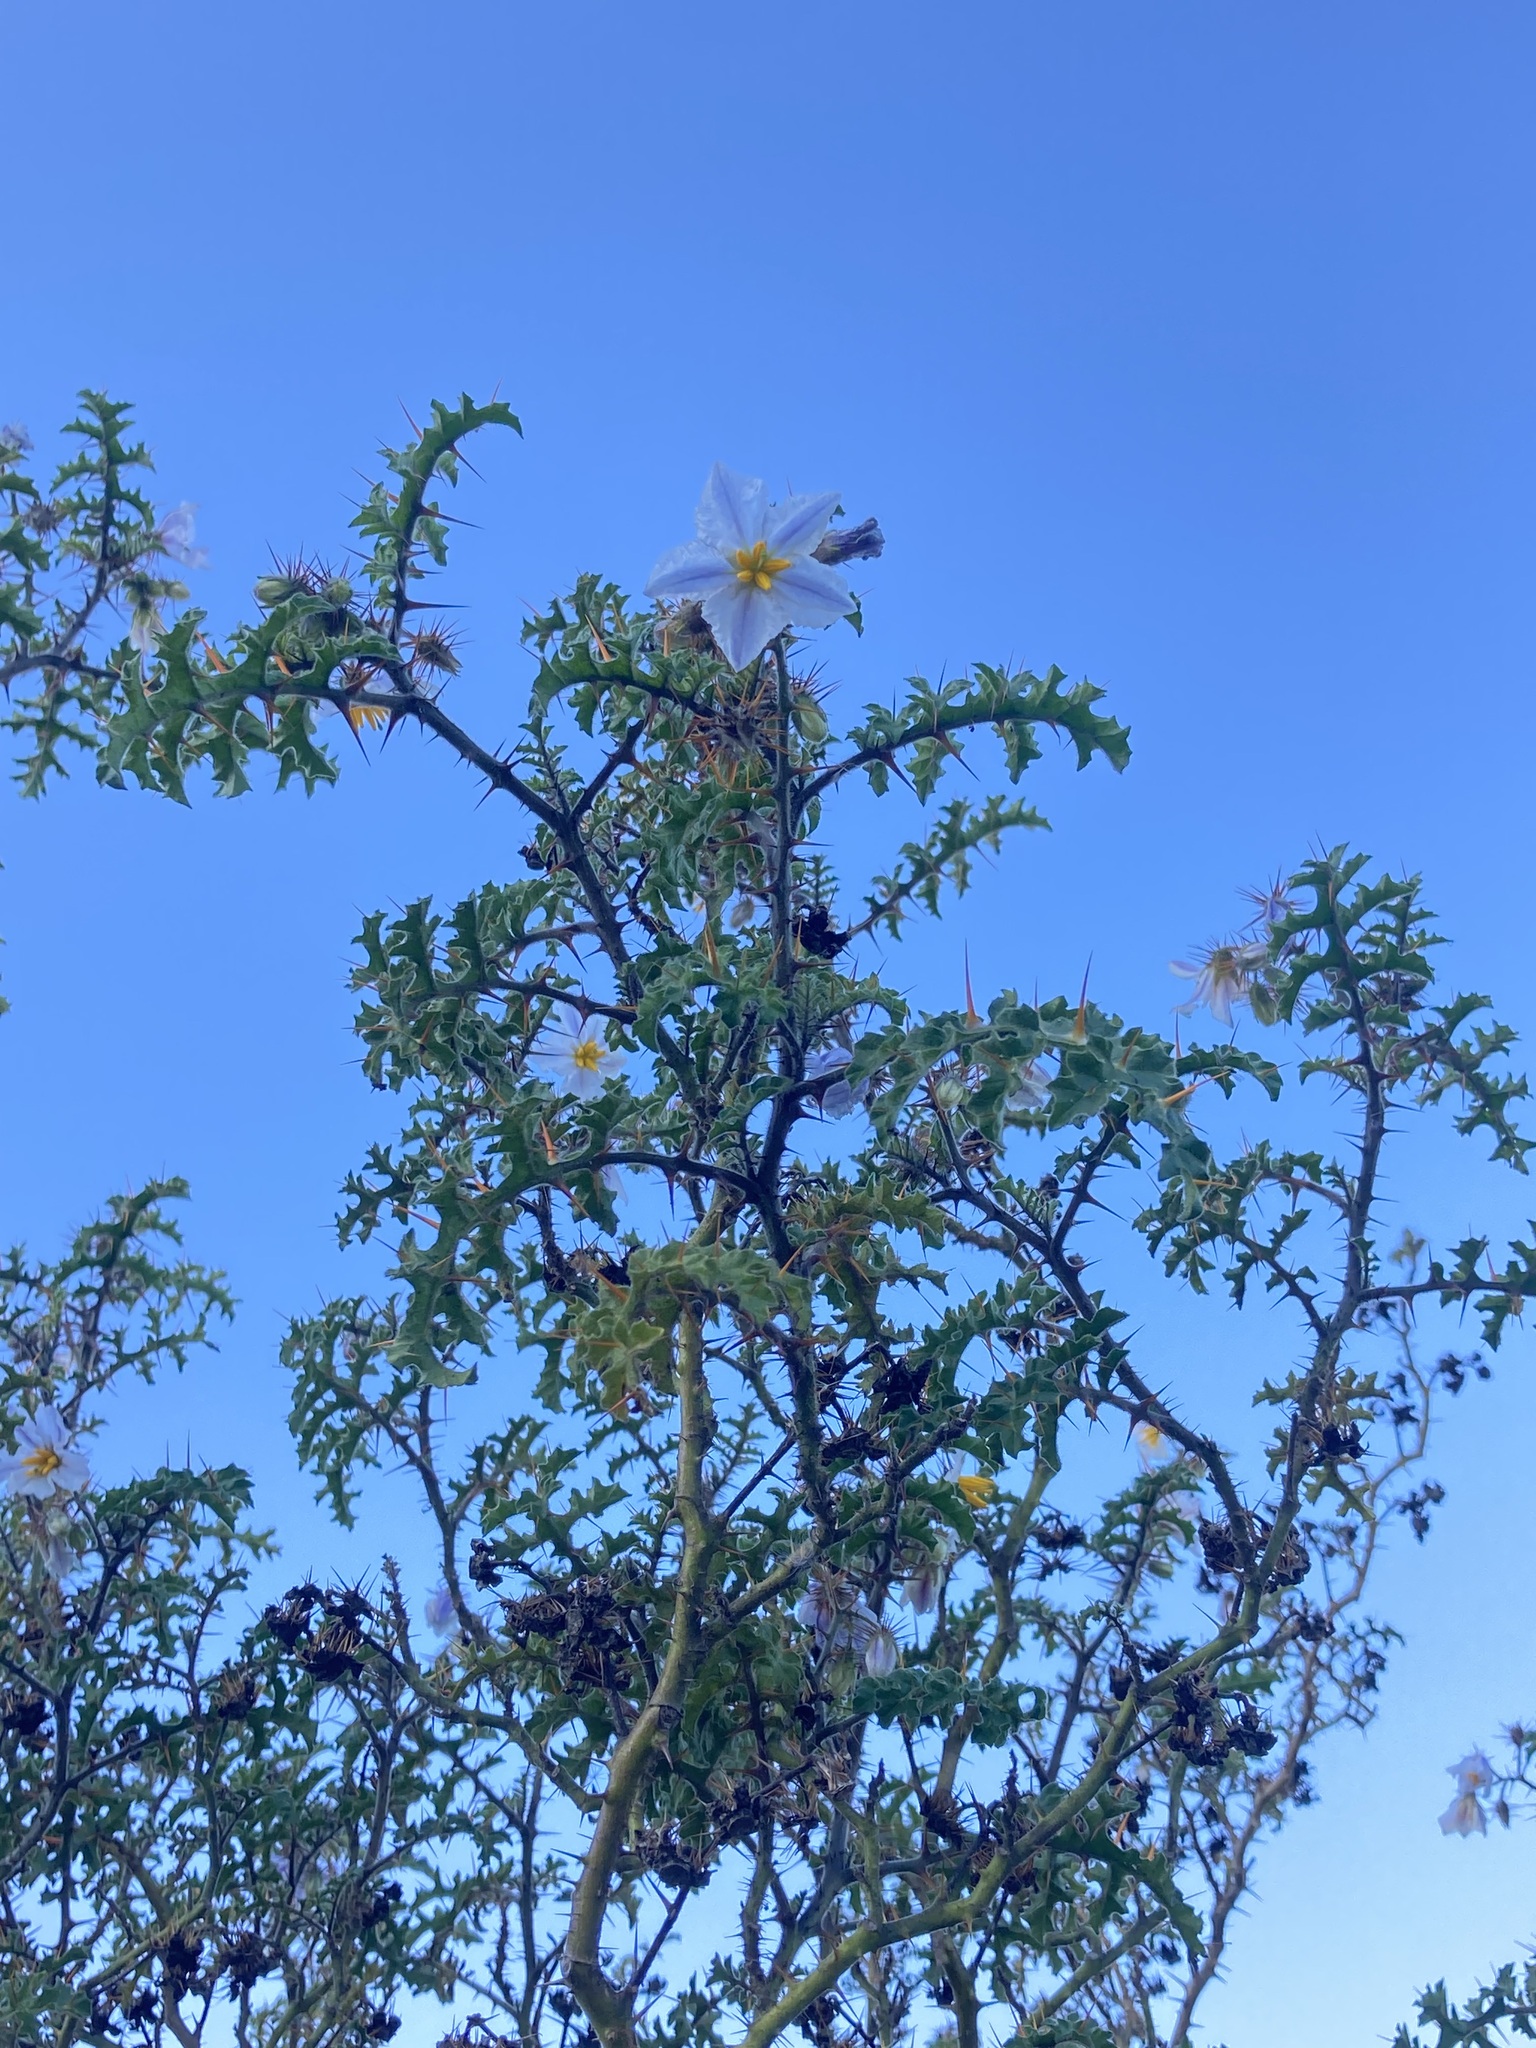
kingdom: Plantae
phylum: Tracheophyta
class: Magnoliopsida
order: Solanales
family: Solanaceae
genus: Solanum
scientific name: Solanum sisymbriifolium
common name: Red buffalo-bur
